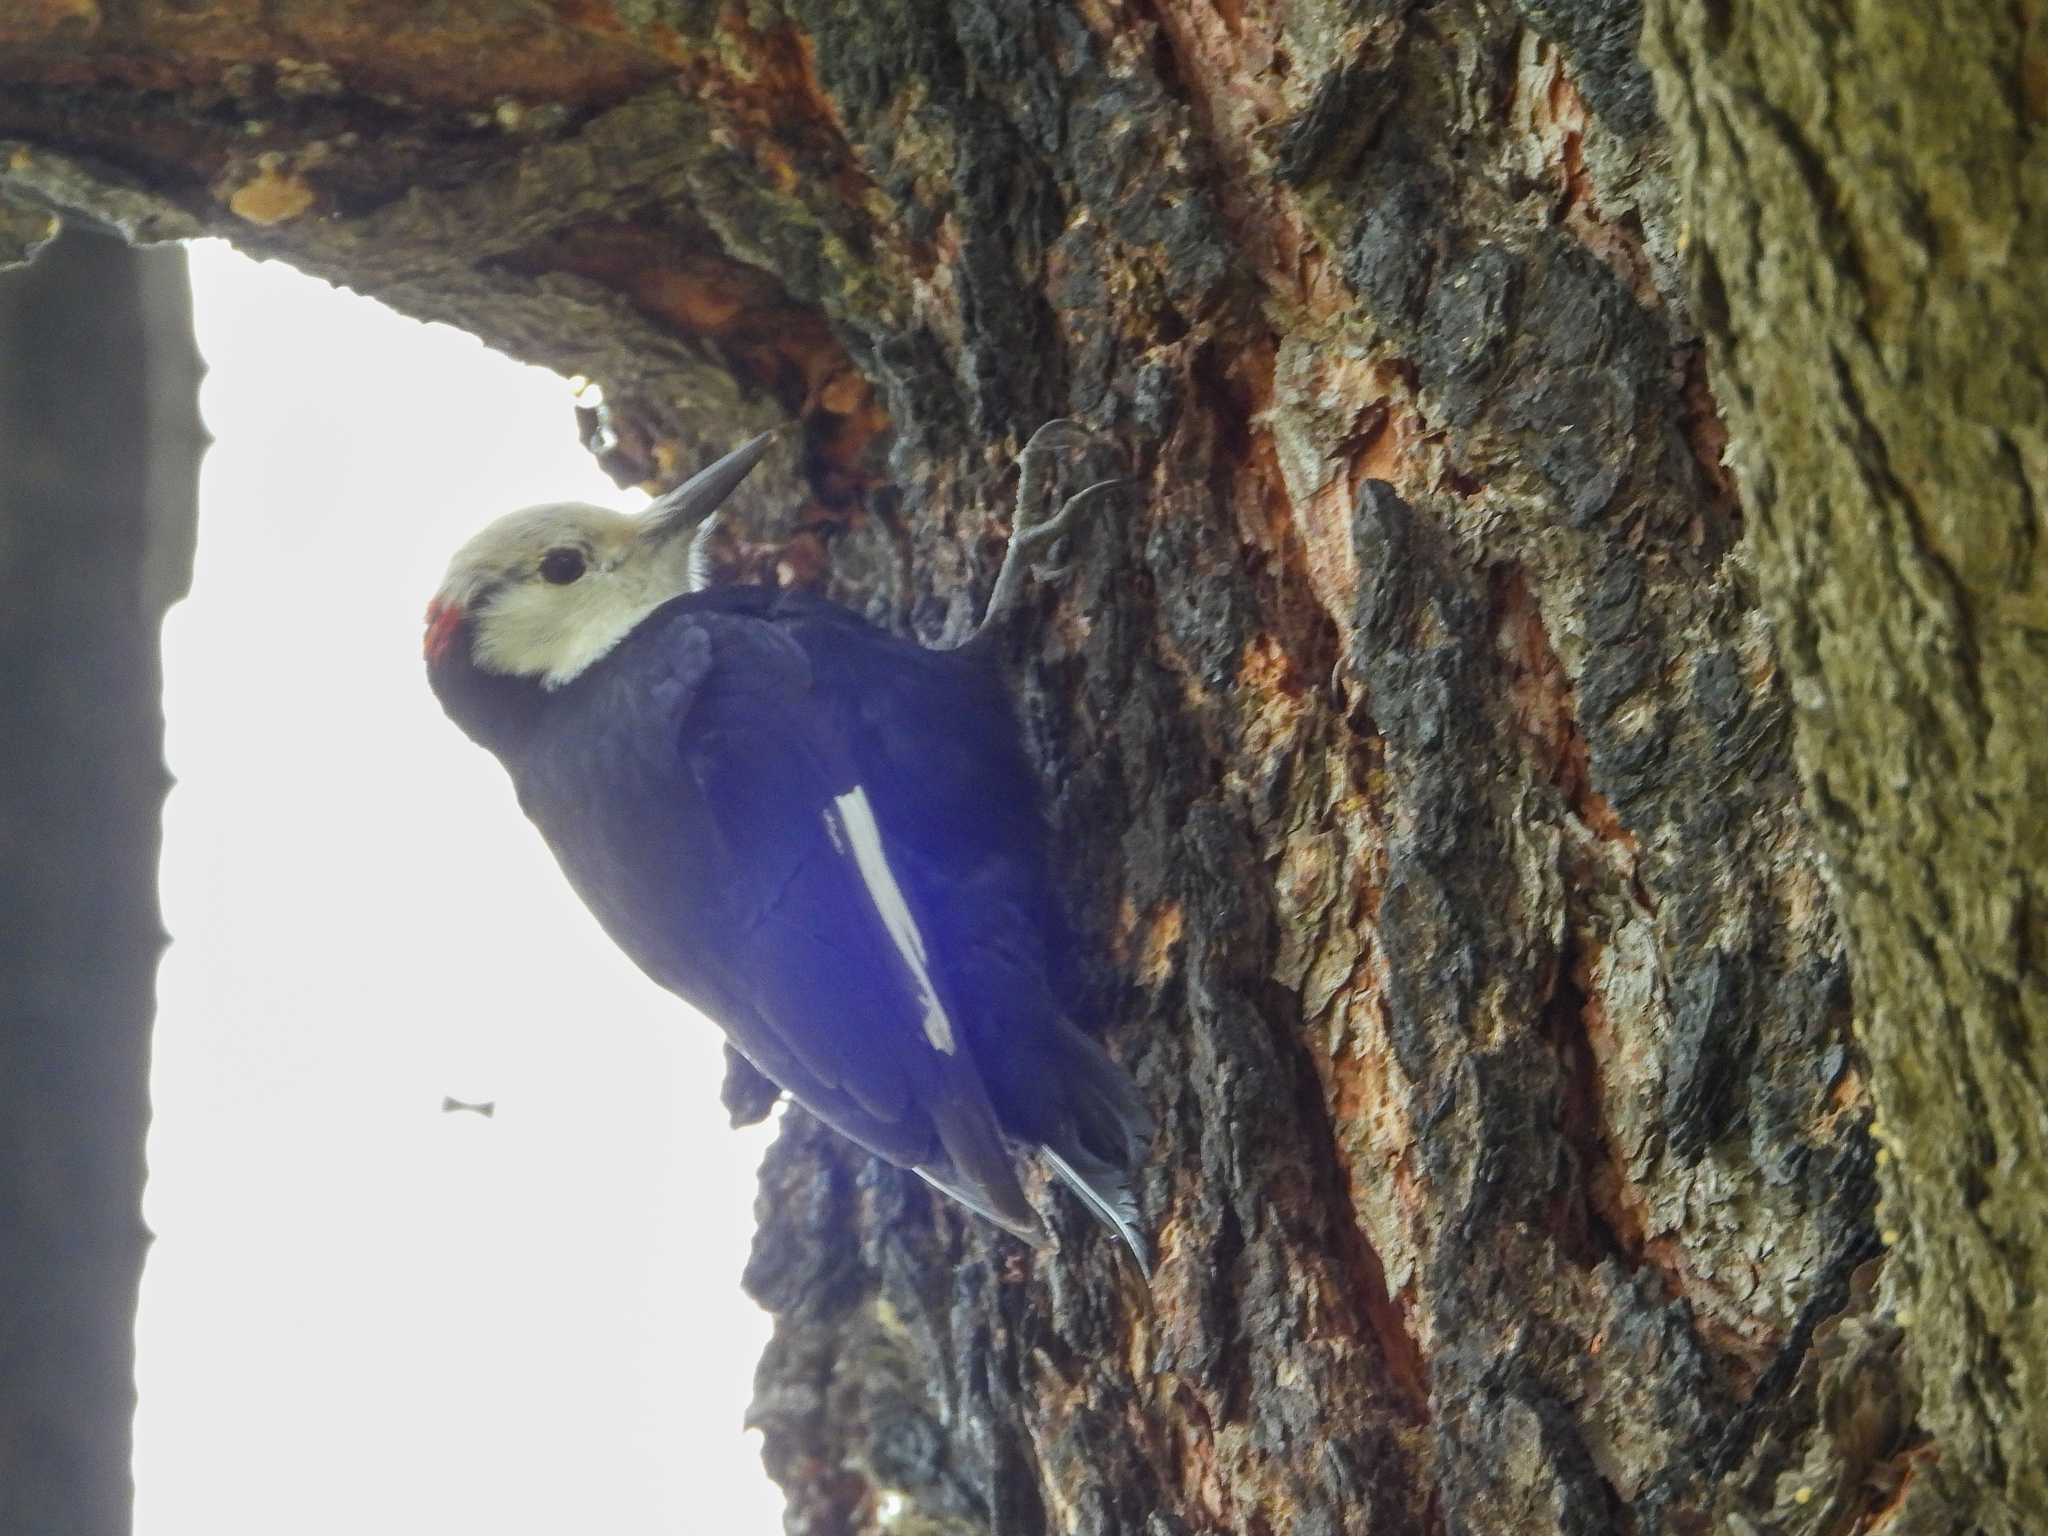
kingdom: Animalia
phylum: Chordata
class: Aves
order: Piciformes
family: Picidae
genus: Leuconotopicus
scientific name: Leuconotopicus albolarvatus
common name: White-headed woodpecker
